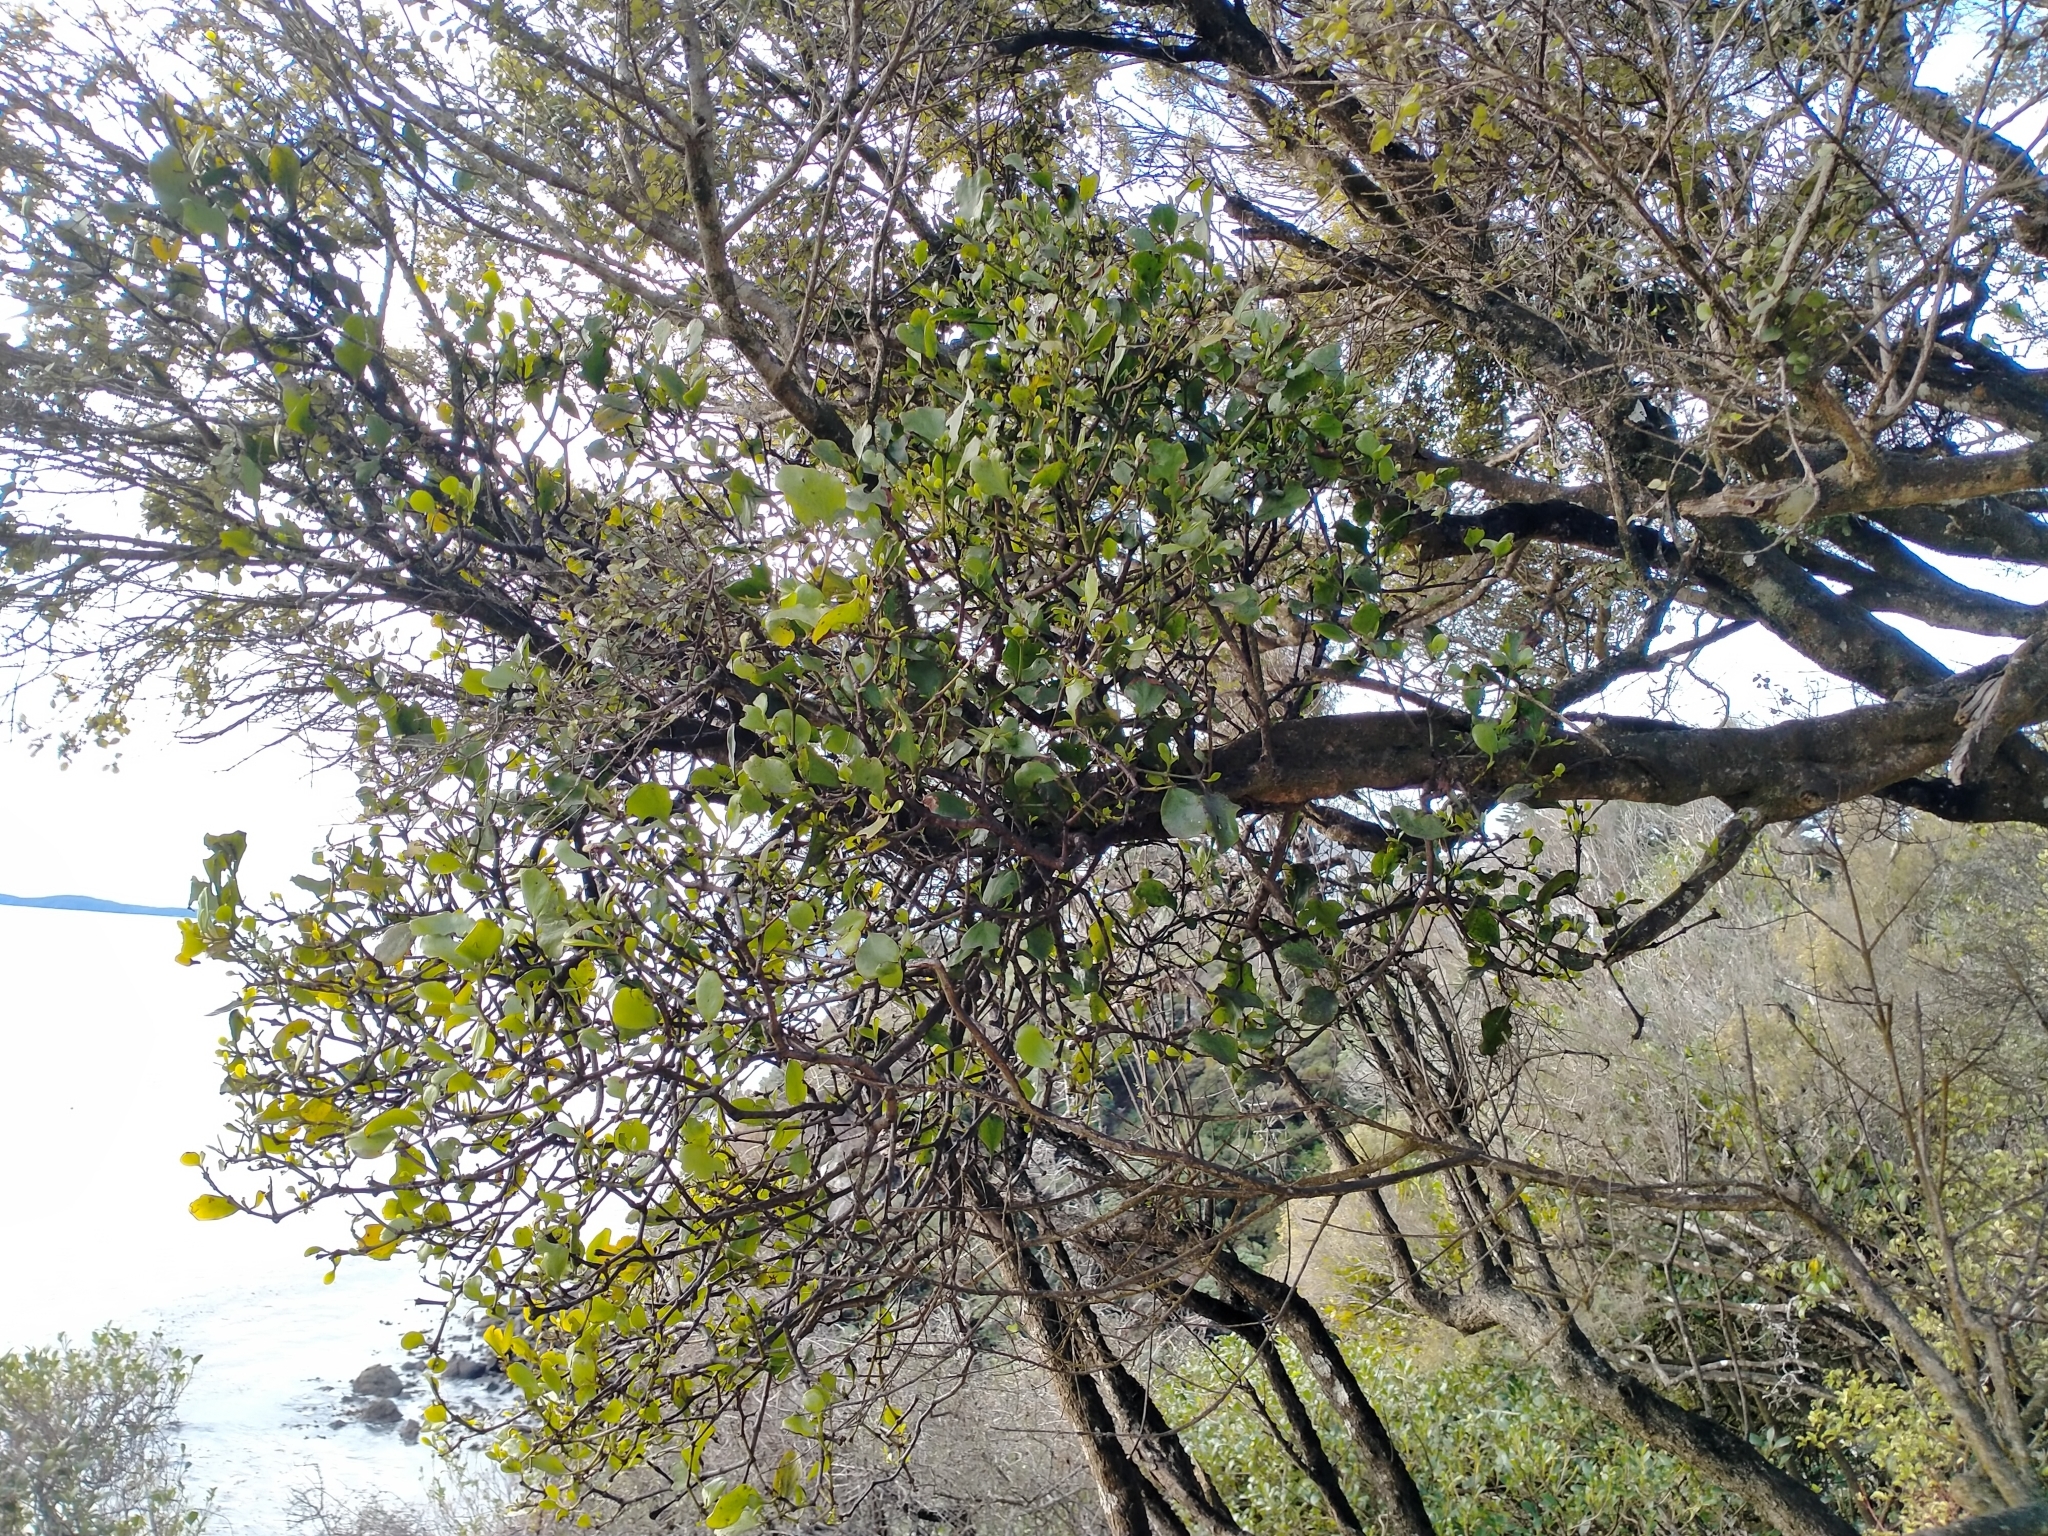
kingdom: Plantae
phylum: Tracheophyta
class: Magnoliopsida
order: Santalales
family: Loranthaceae
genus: Ileostylus
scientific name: Ileostylus micranthus
